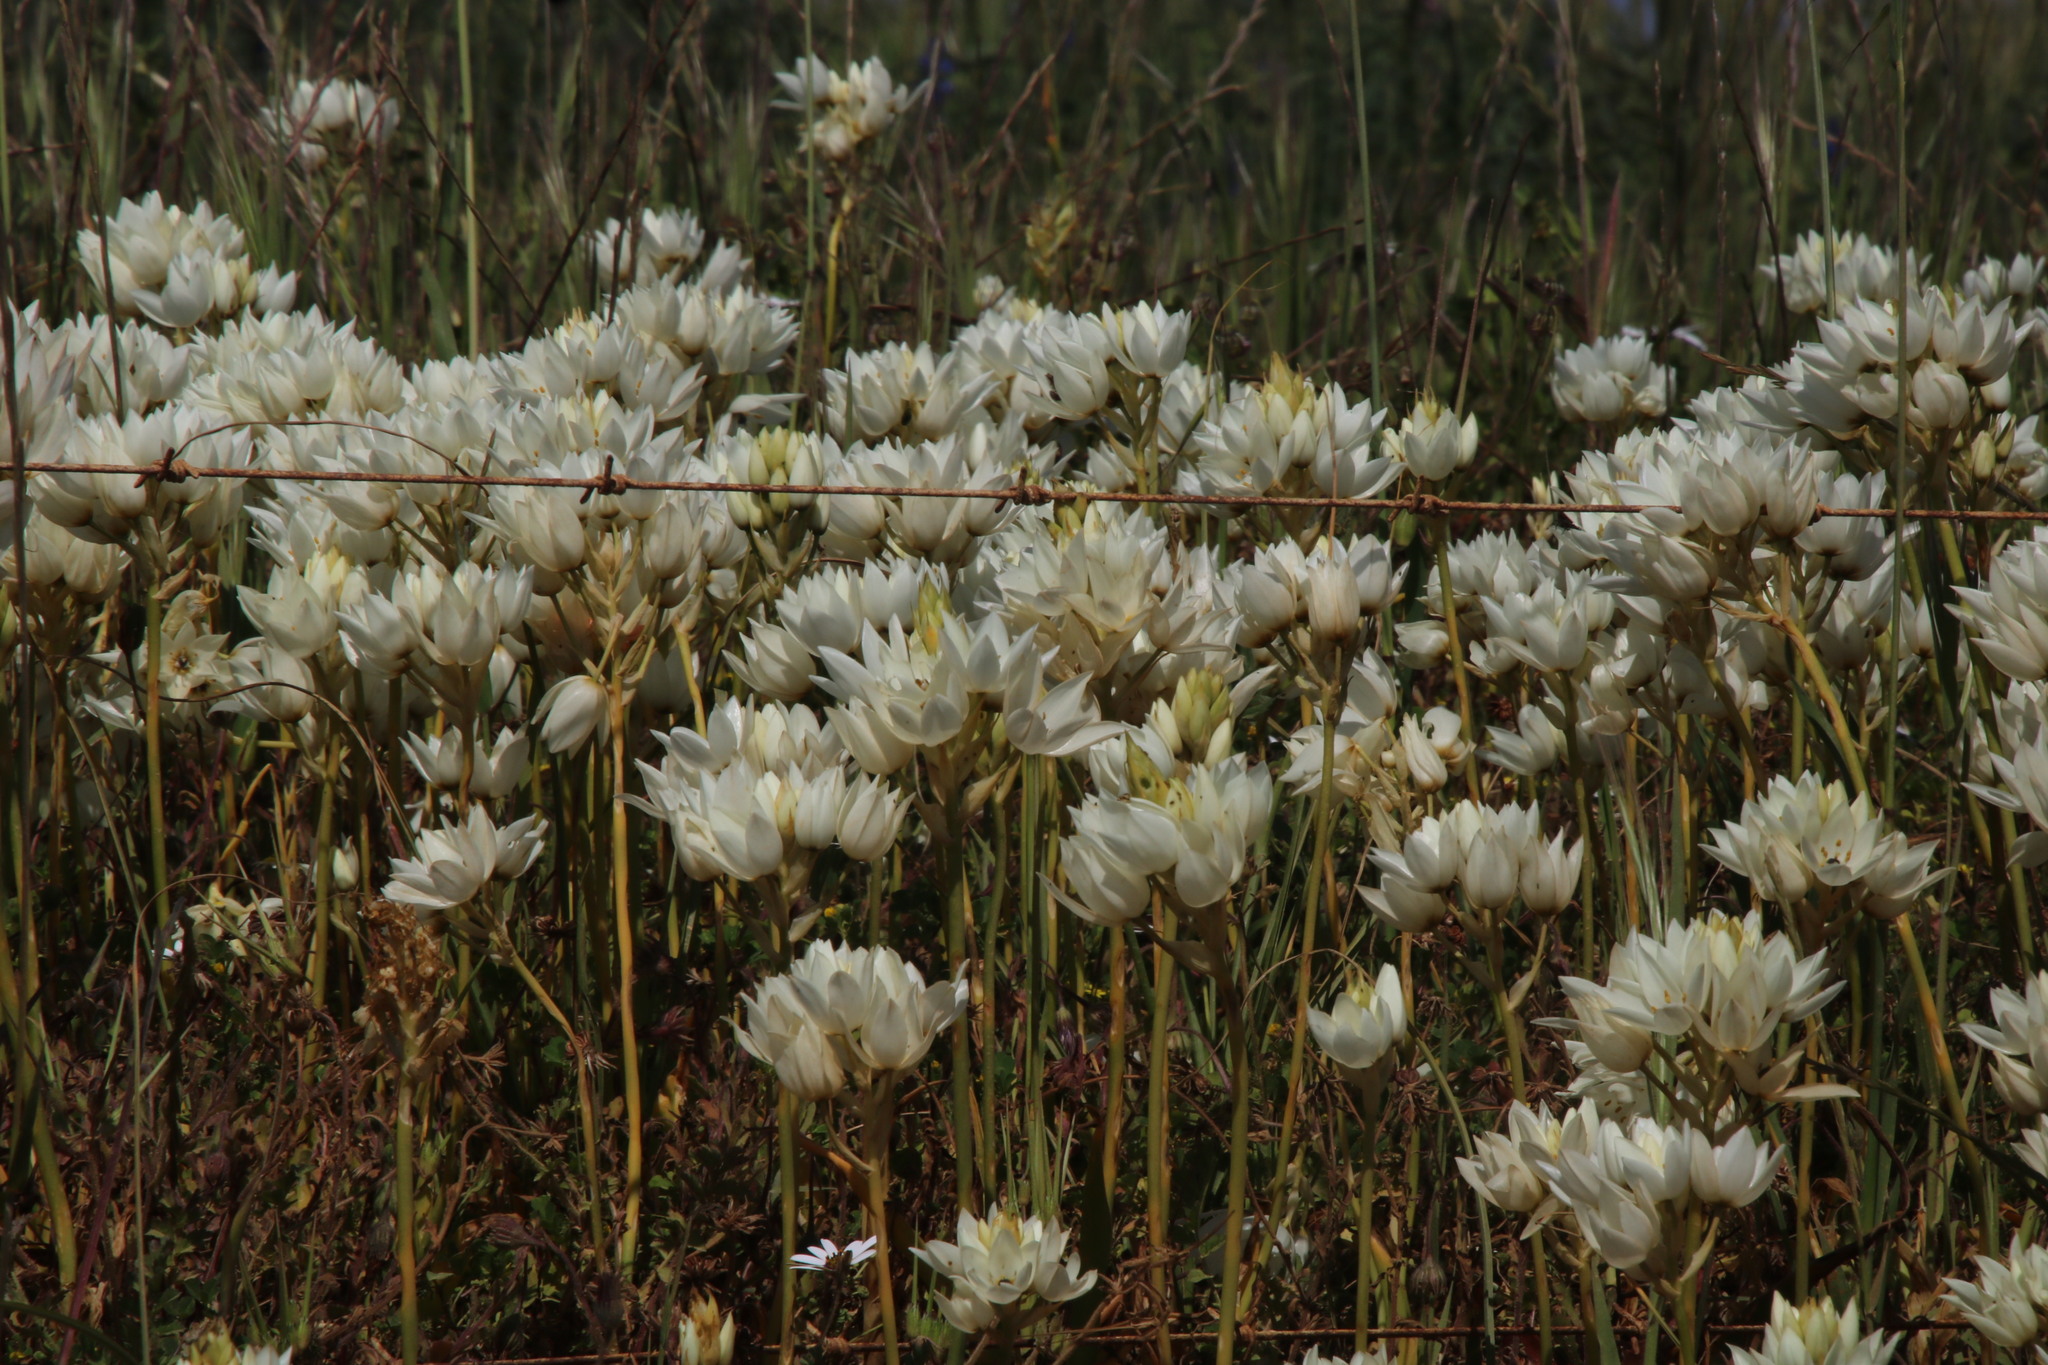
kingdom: Plantae
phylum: Tracheophyta
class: Liliopsida
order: Asparagales
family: Asparagaceae
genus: Ornithogalum
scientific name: Ornithogalum thyrsoides
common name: Chincherinchee
